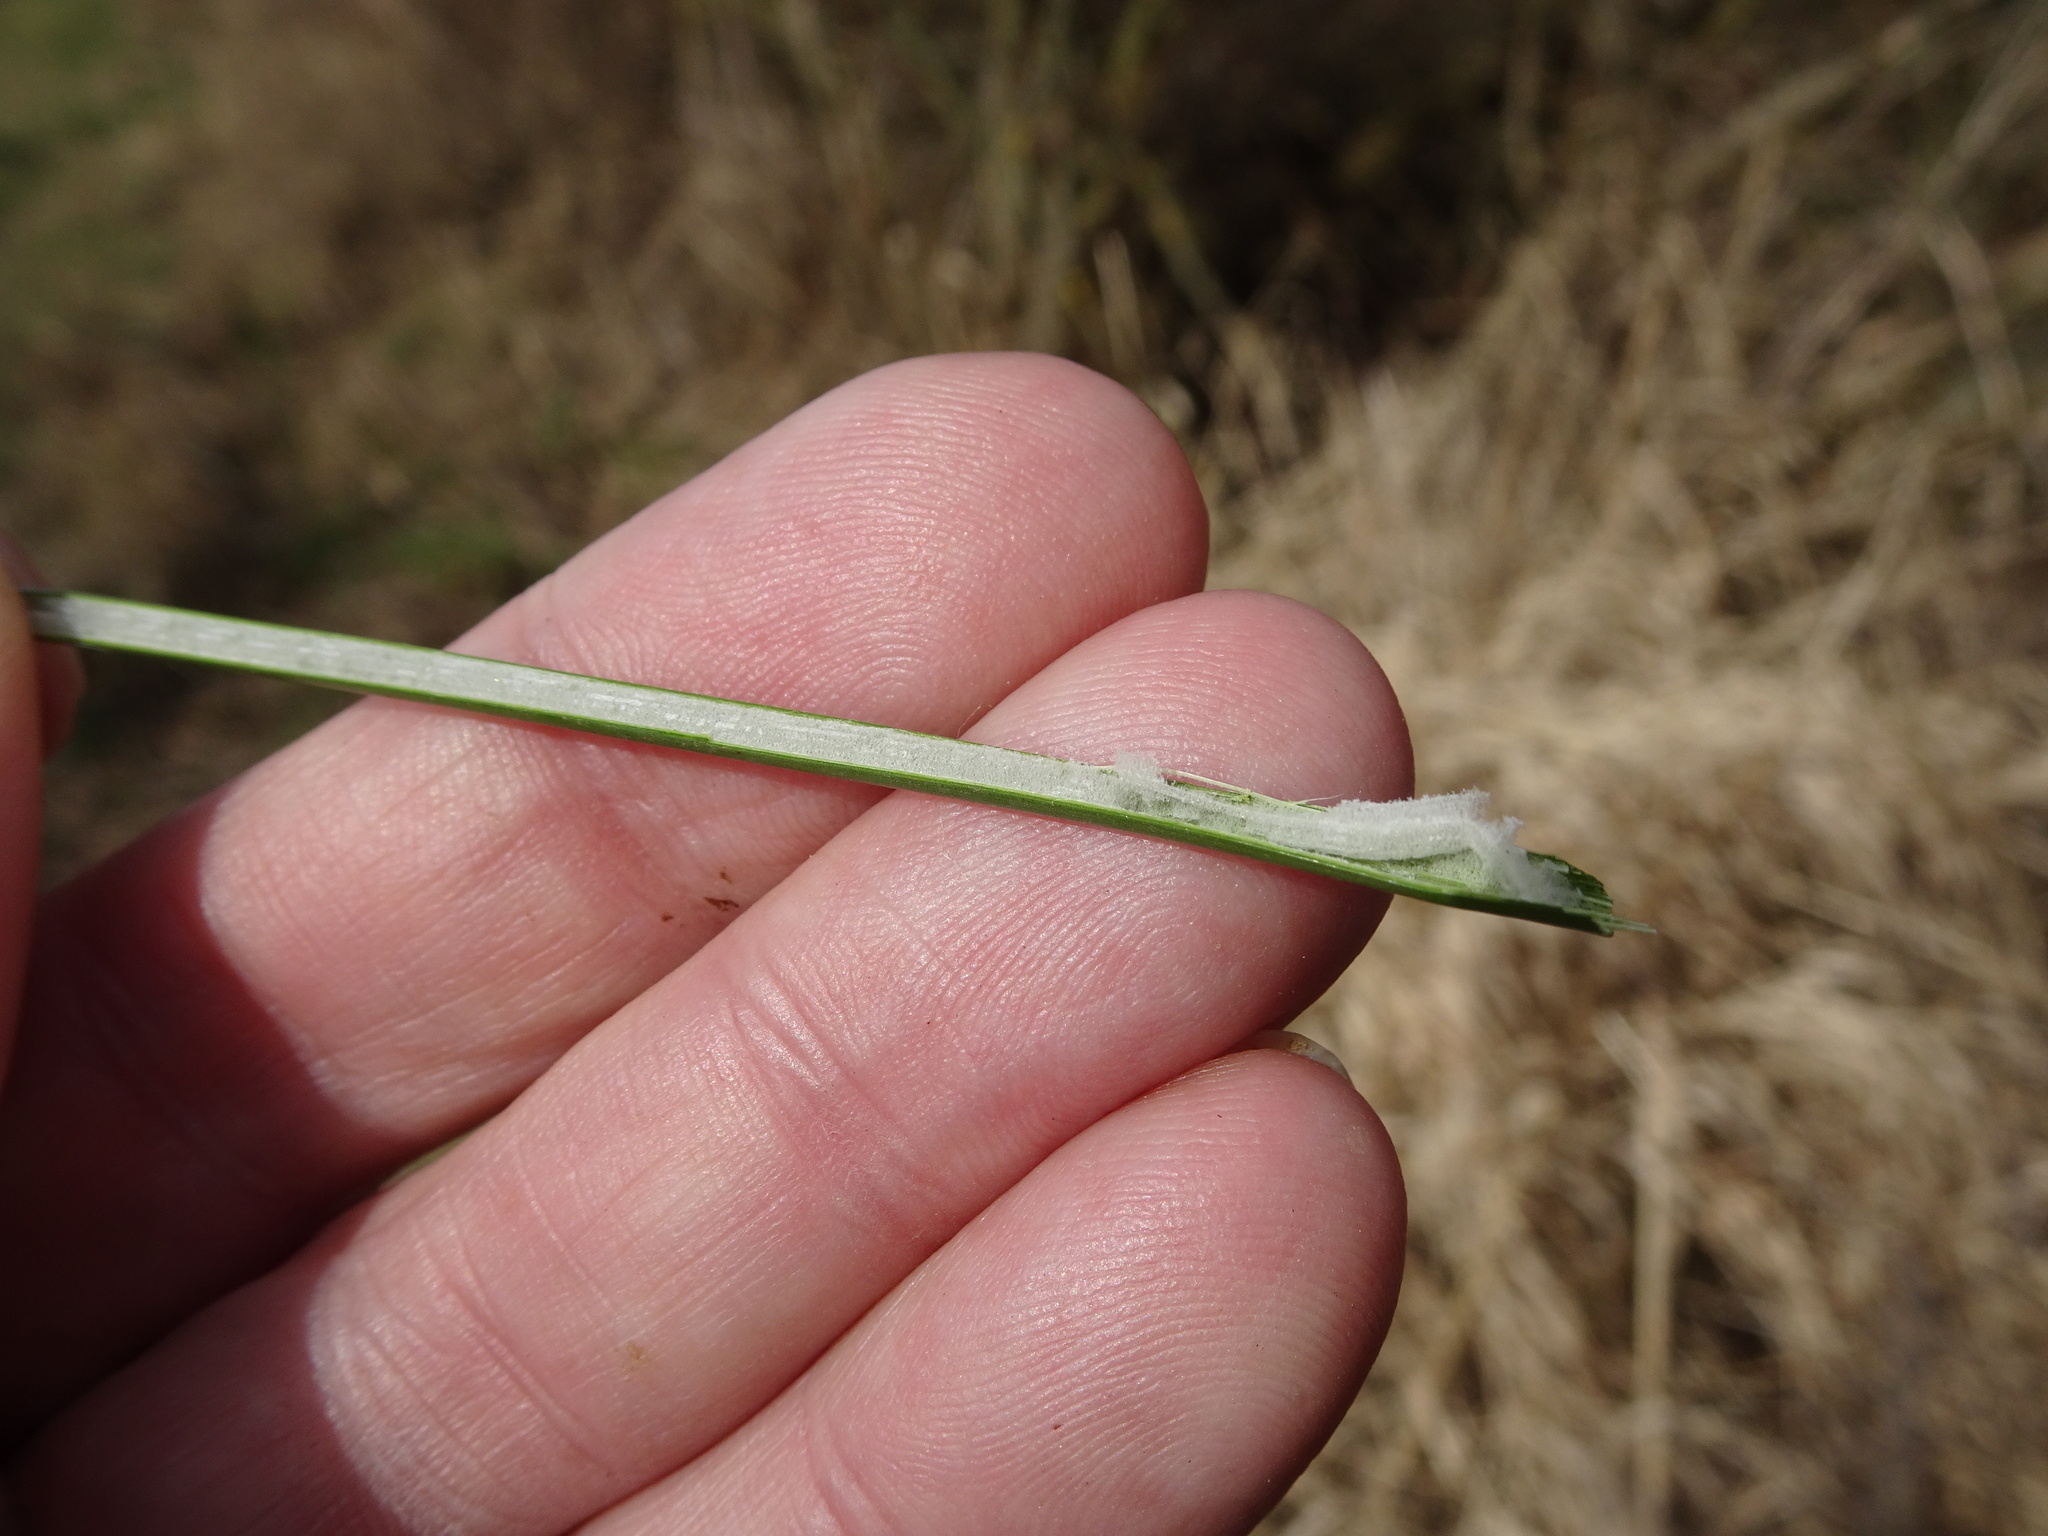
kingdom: Plantae
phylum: Tracheophyta
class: Liliopsida
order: Poales
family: Juncaceae
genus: Juncus
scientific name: Juncus effusus
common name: Soft rush
